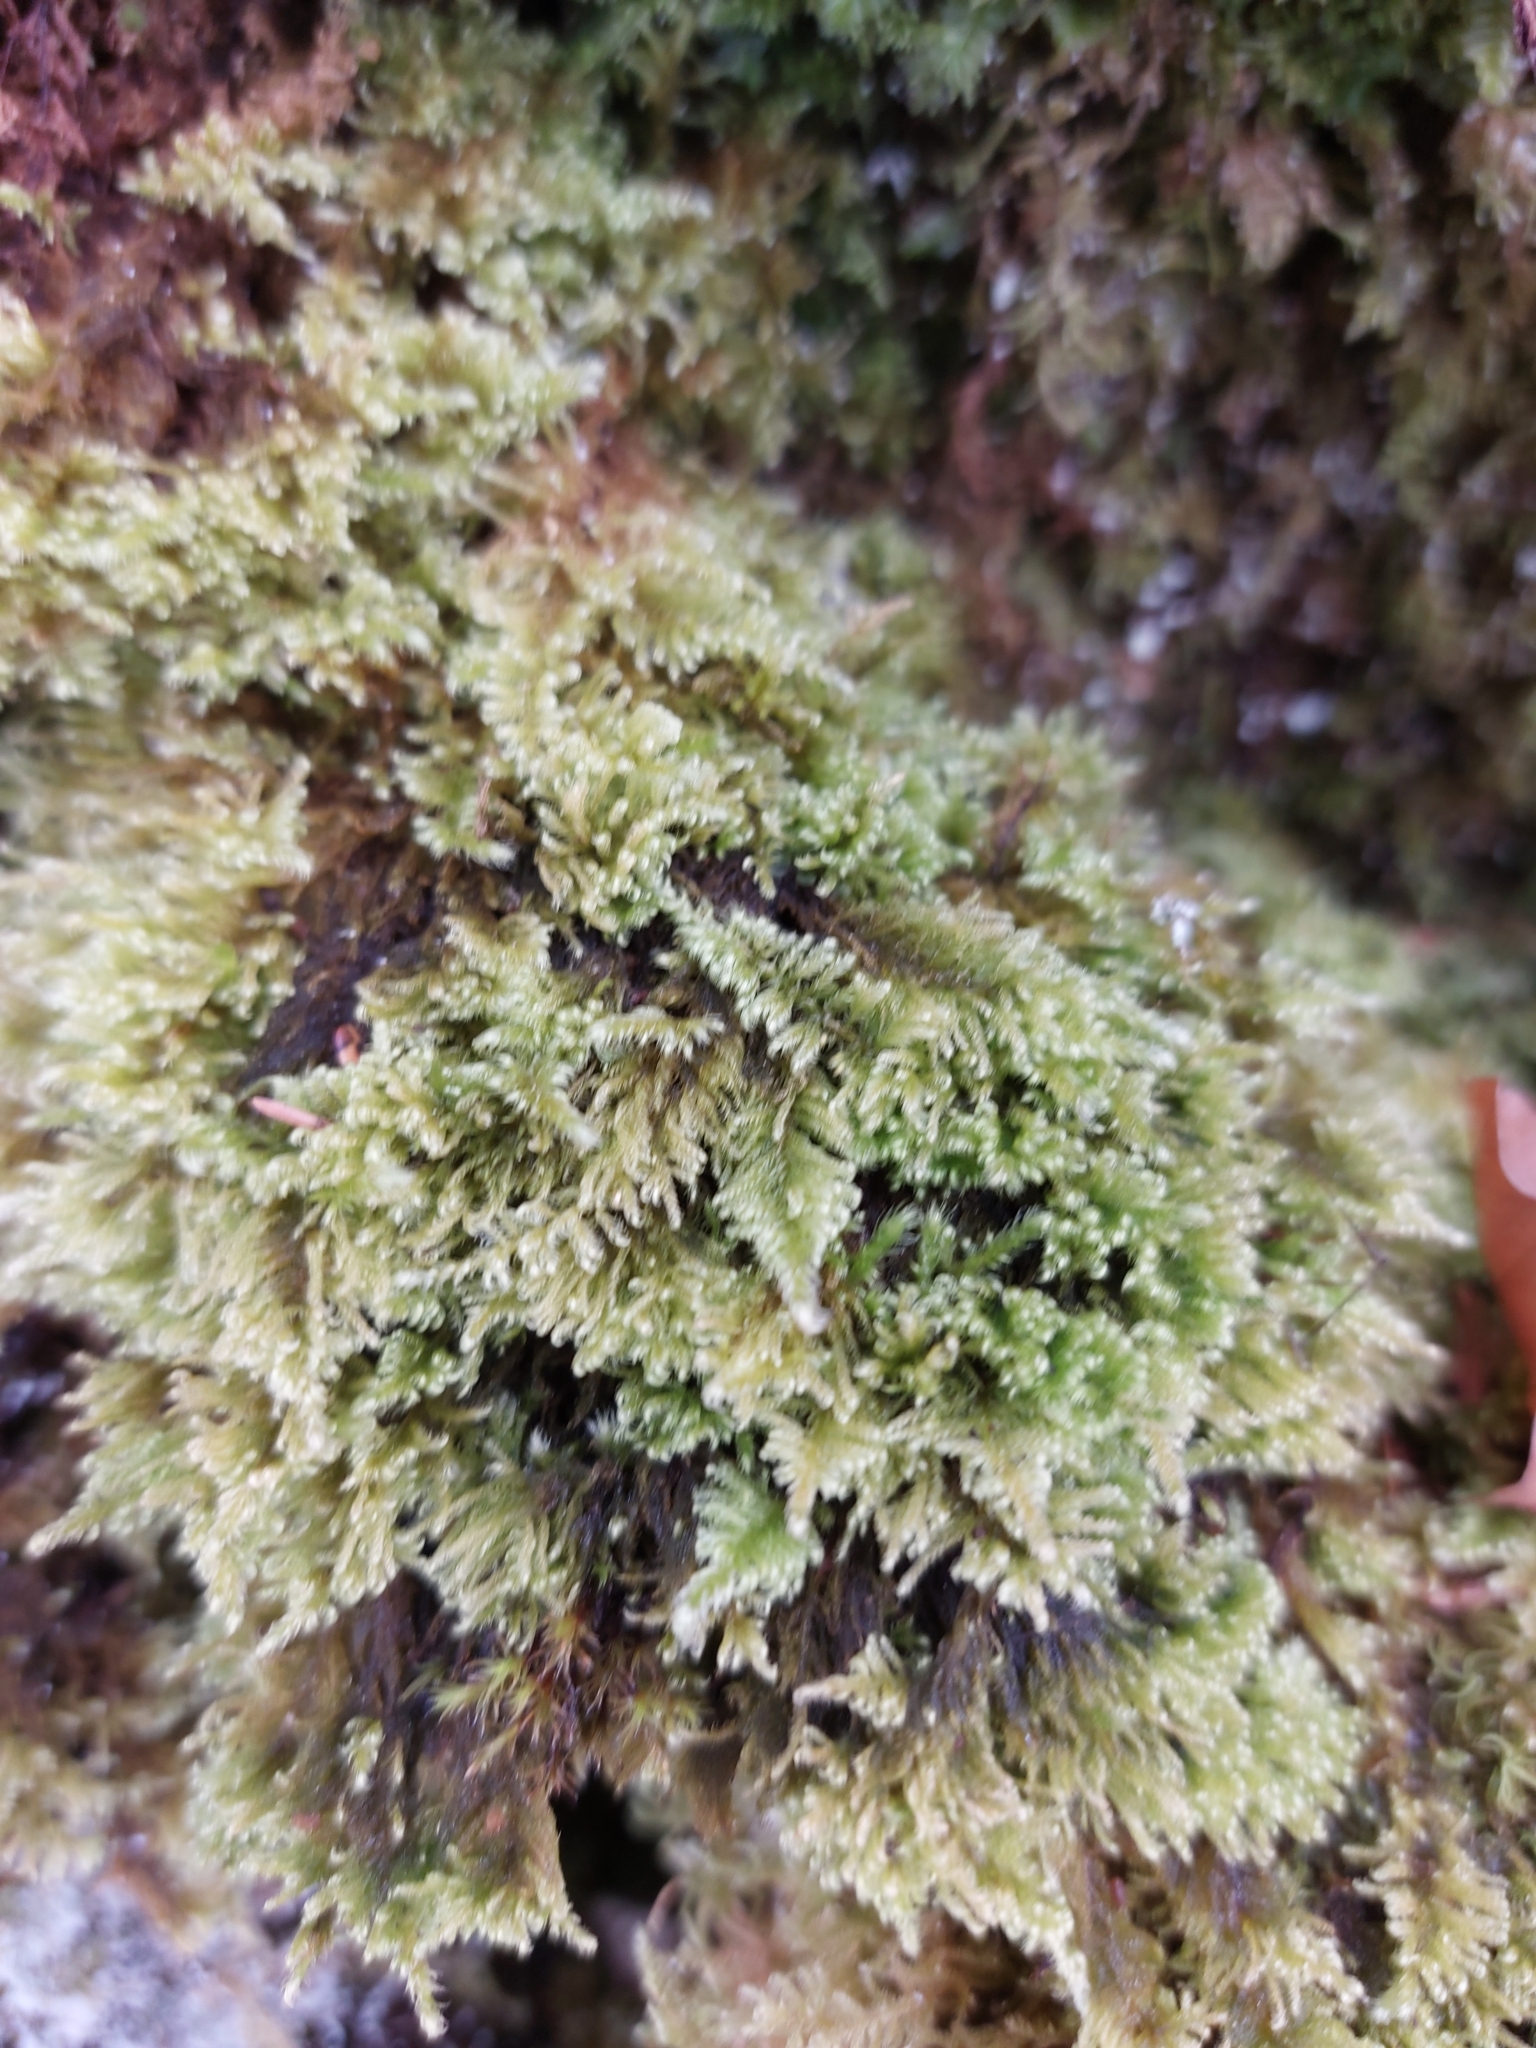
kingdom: Plantae
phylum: Bryophyta
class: Bryopsida
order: Hypnales
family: Myuriaceae
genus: Ctenidium
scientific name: Ctenidium molluscum
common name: Chalk comb-moss
